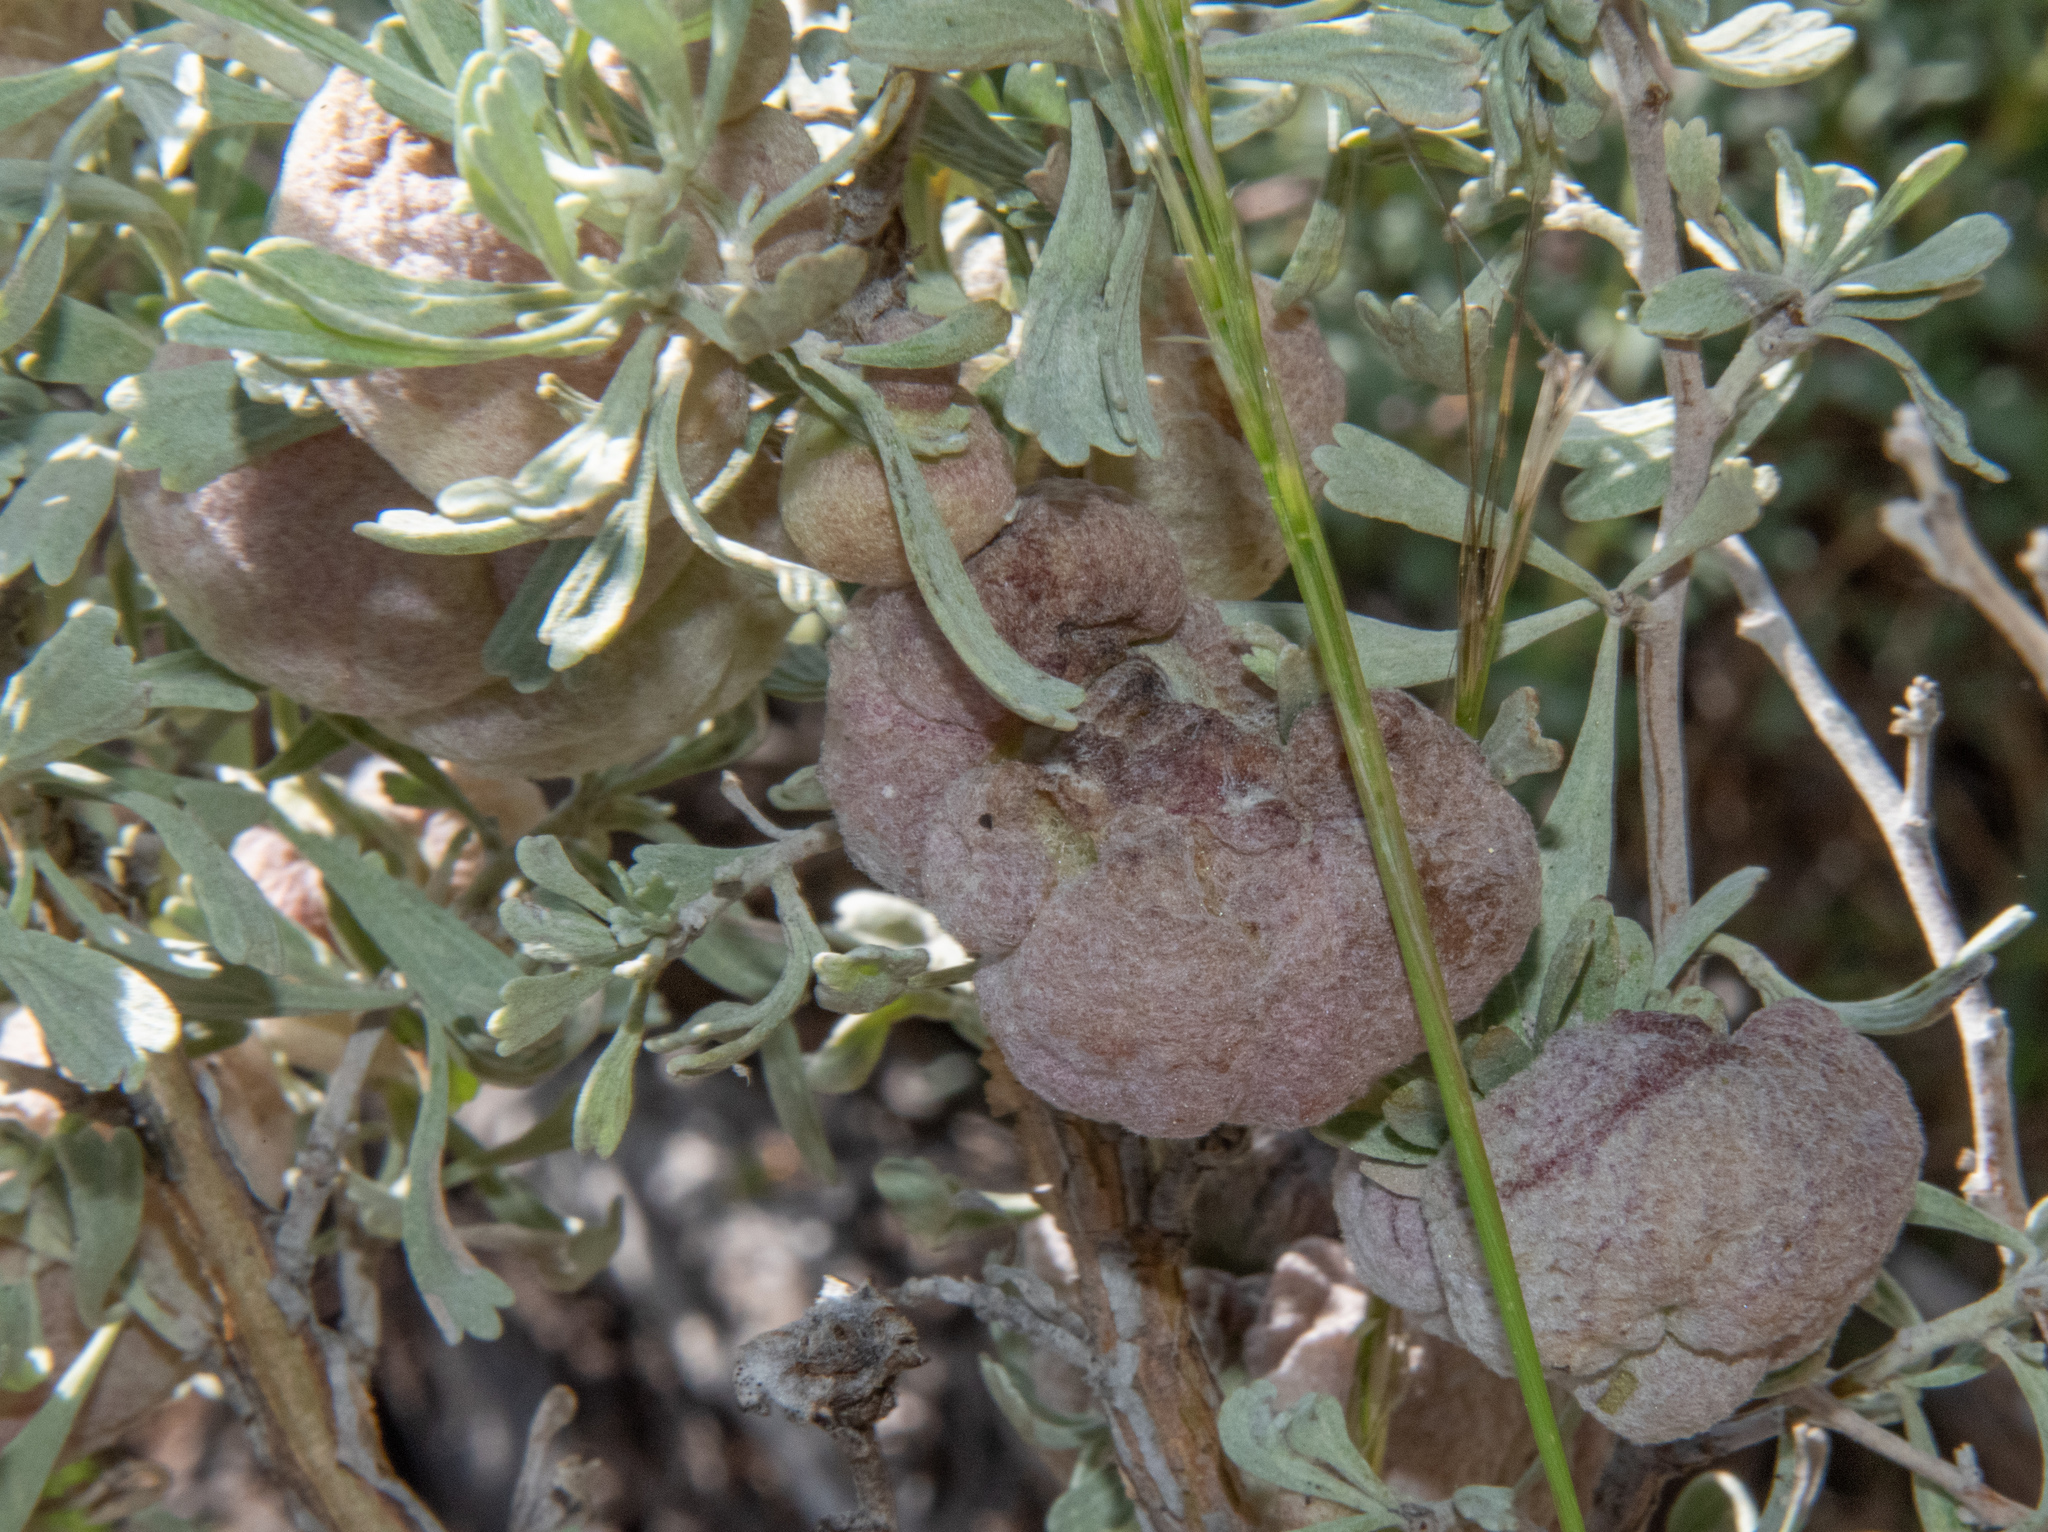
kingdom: Animalia
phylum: Arthropoda
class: Insecta
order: Diptera
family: Cecidomyiidae
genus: Rhopalomyia
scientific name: Rhopalomyia pomum
